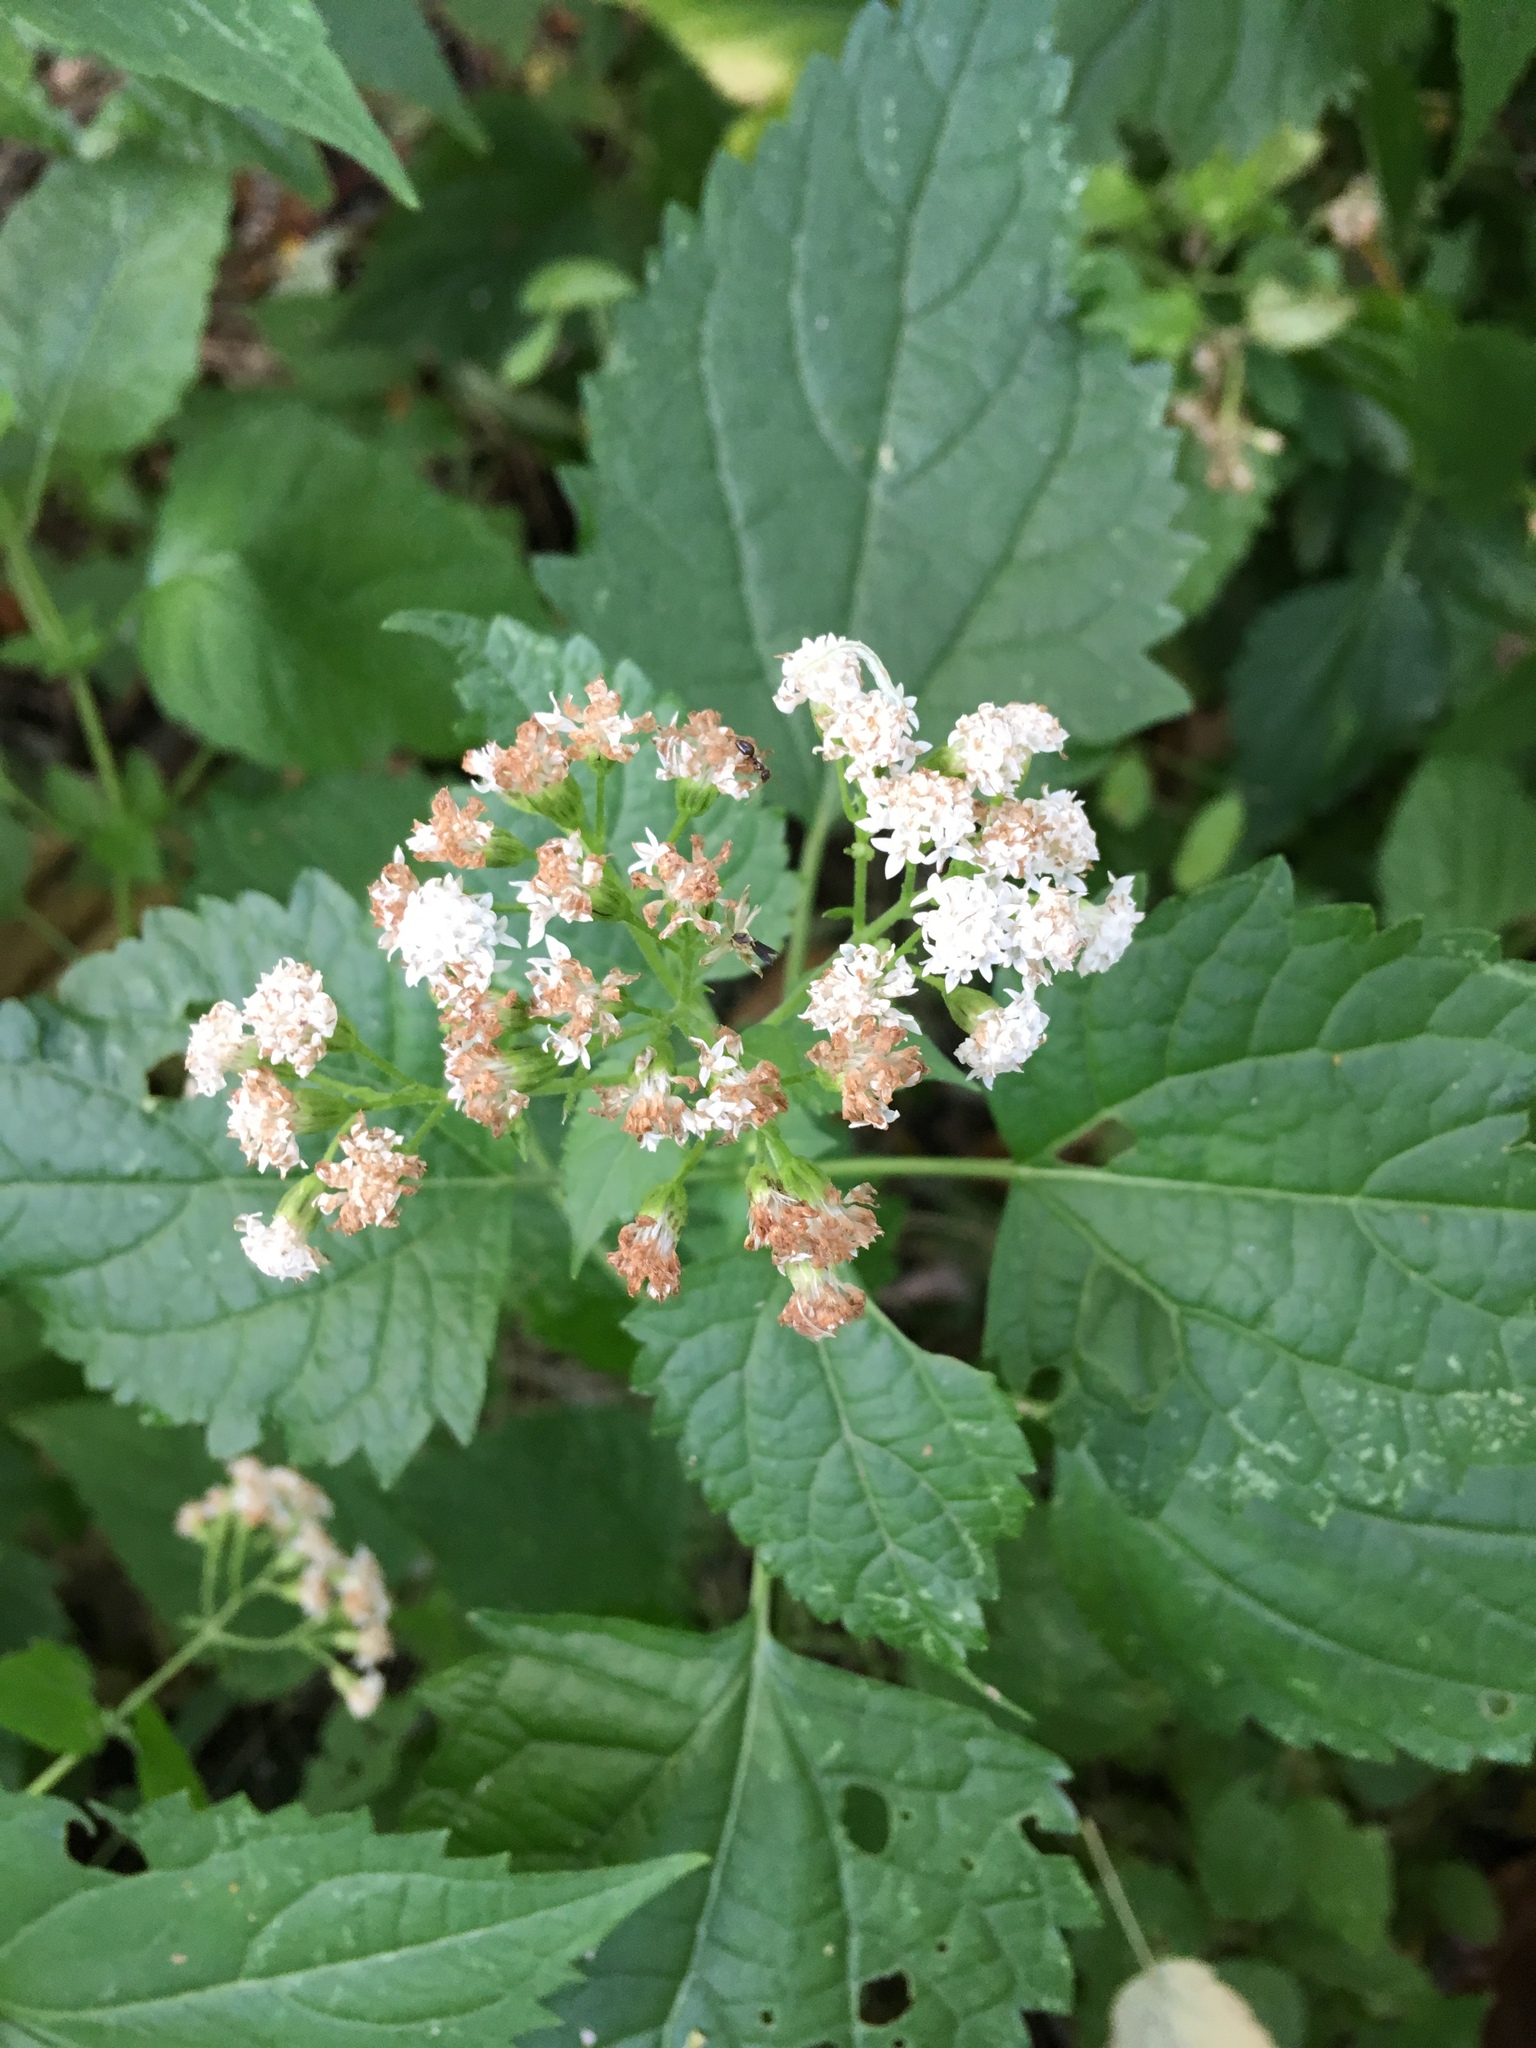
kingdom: Plantae
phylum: Tracheophyta
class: Magnoliopsida
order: Asterales
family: Asteraceae
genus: Ageratina
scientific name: Ageratina altissima
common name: White snakeroot
